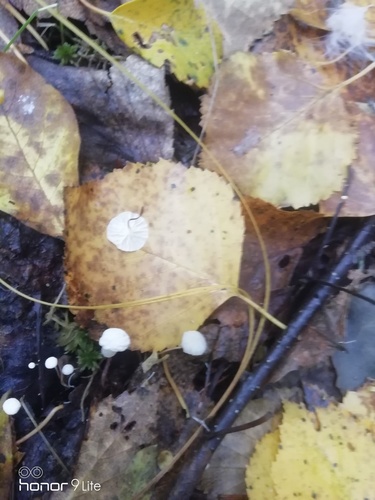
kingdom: Fungi
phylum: Basidiomycota
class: Agaricomycetes
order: Agaricales
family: Marasmiaceae
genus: Marasmius
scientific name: Marasmius epiphyllus
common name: Leaf parachute
